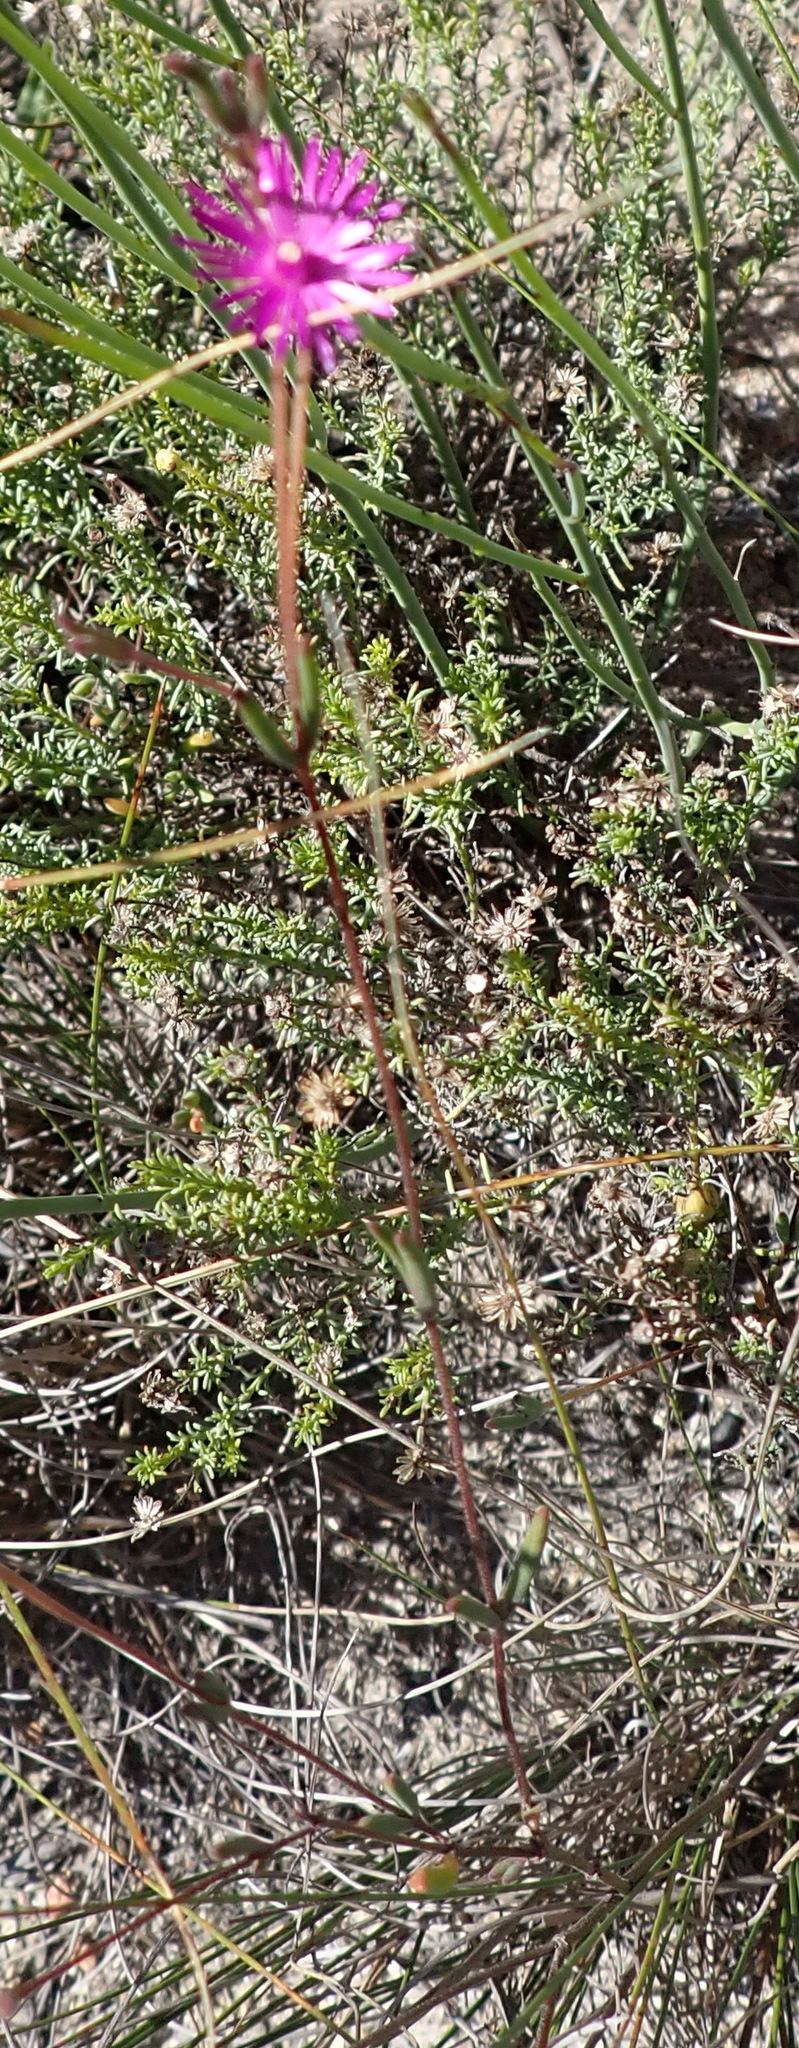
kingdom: Plantae
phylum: Tracheophyta
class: Magnoliopsida
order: Caryophyllales
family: Aizoaceae
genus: Drosanthemum
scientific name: Drosanthemum gracillimum
